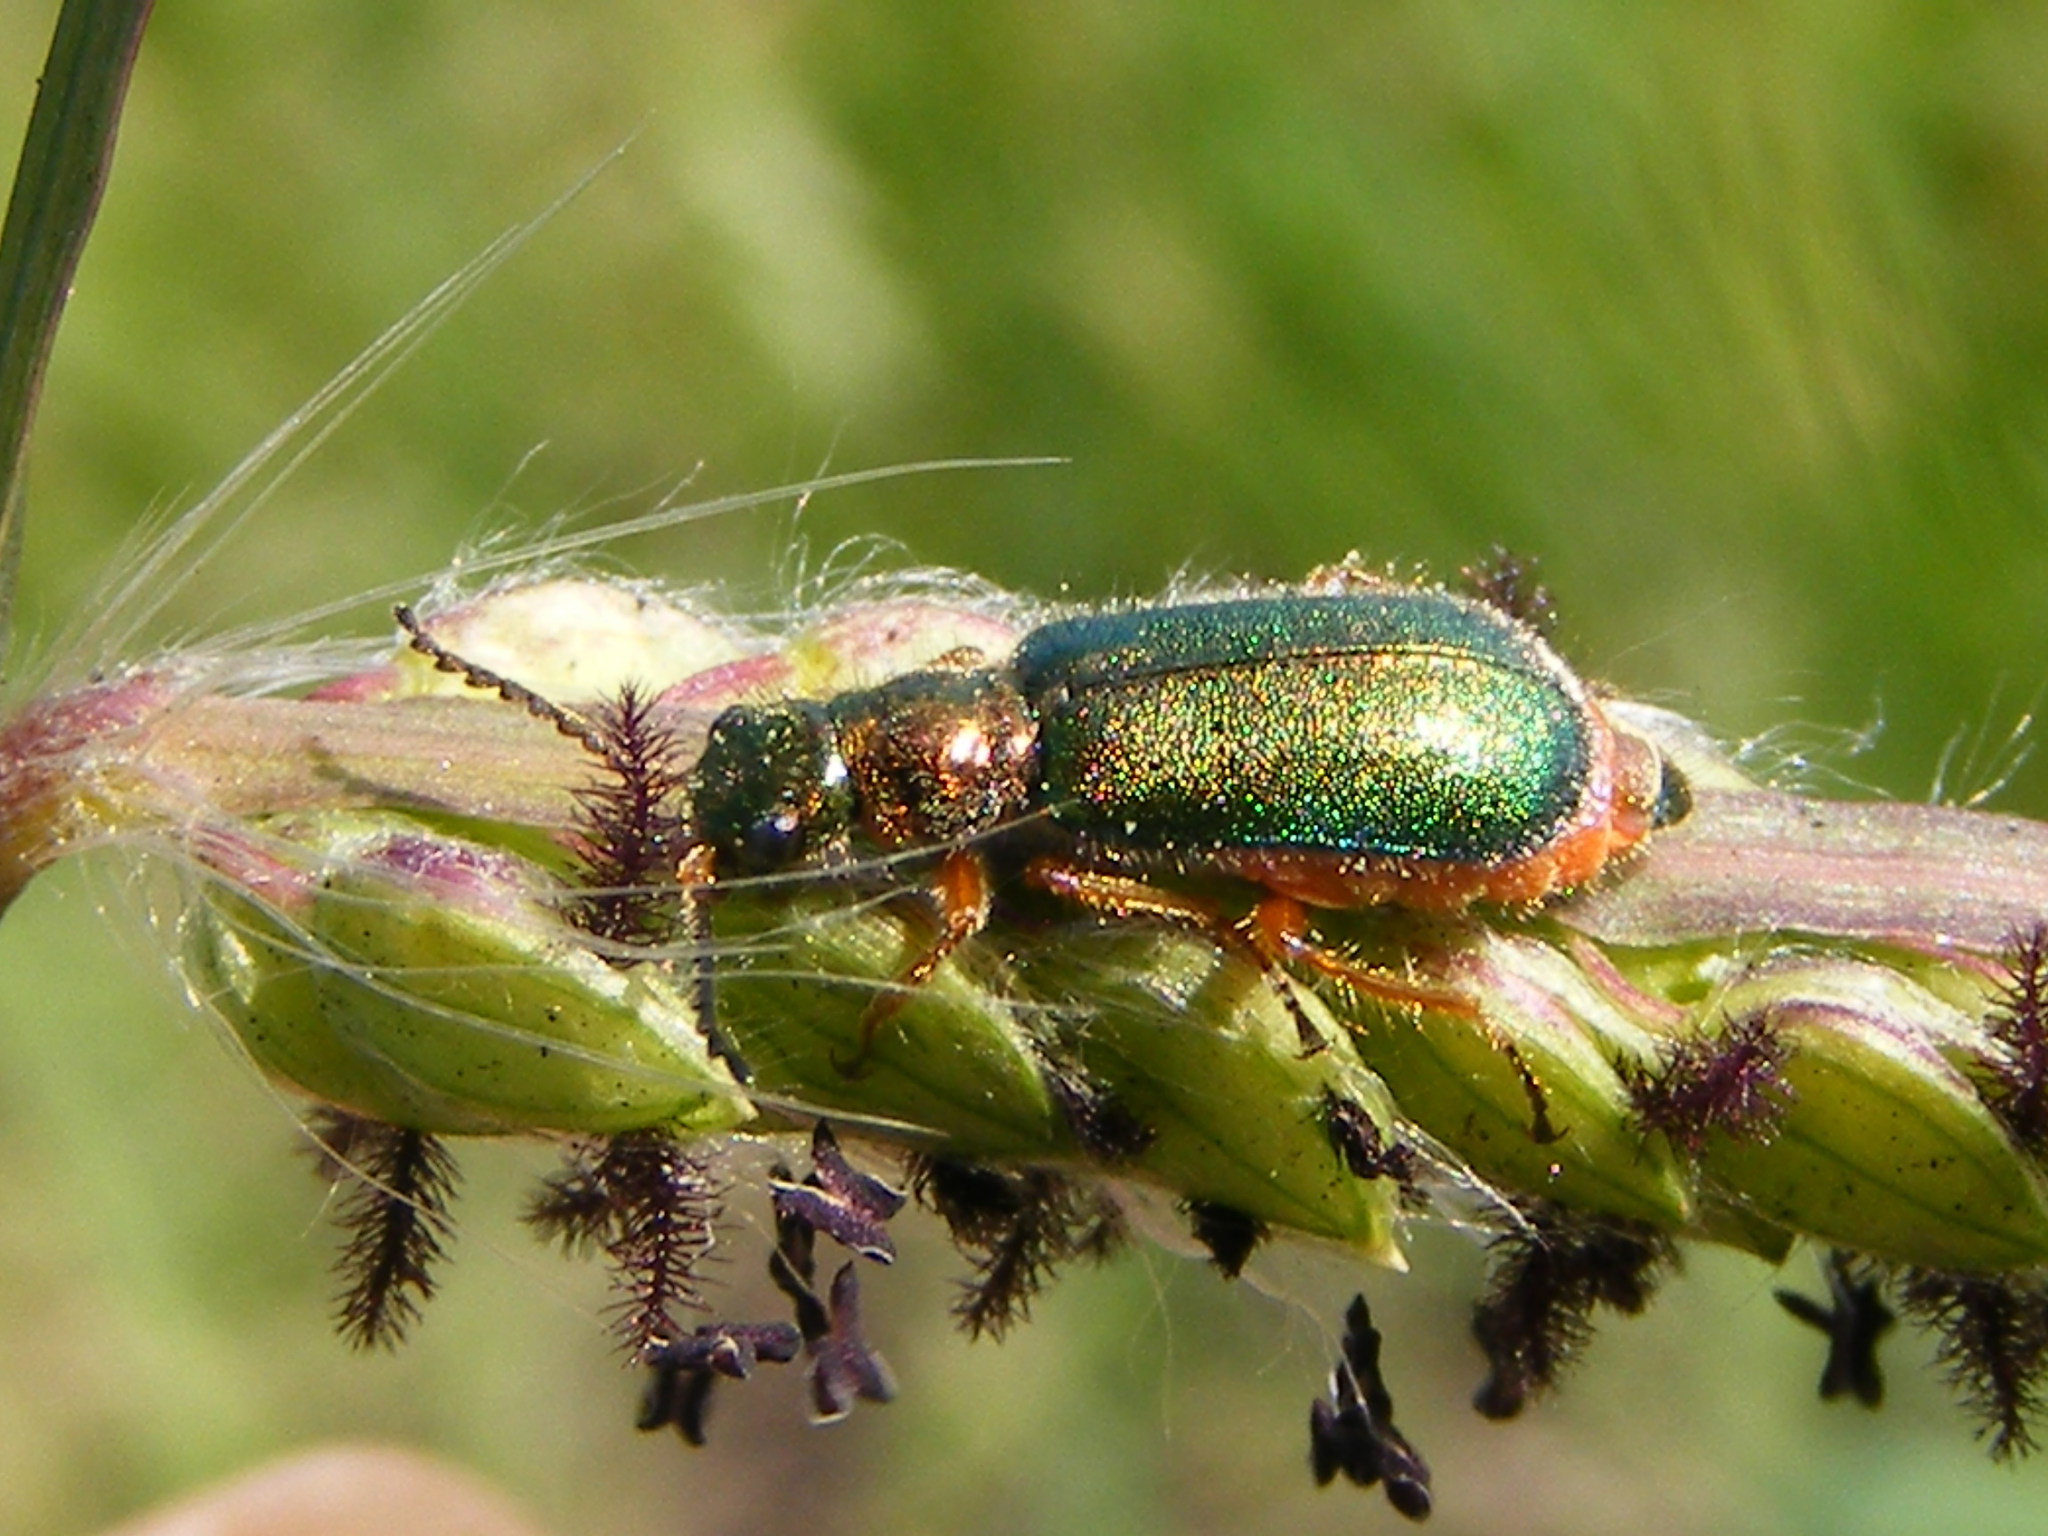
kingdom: Animalia
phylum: Arthropoda
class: Insecta
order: Coleoptera
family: Melyridae
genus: Hadrocnemus
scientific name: Hadrocnemus
